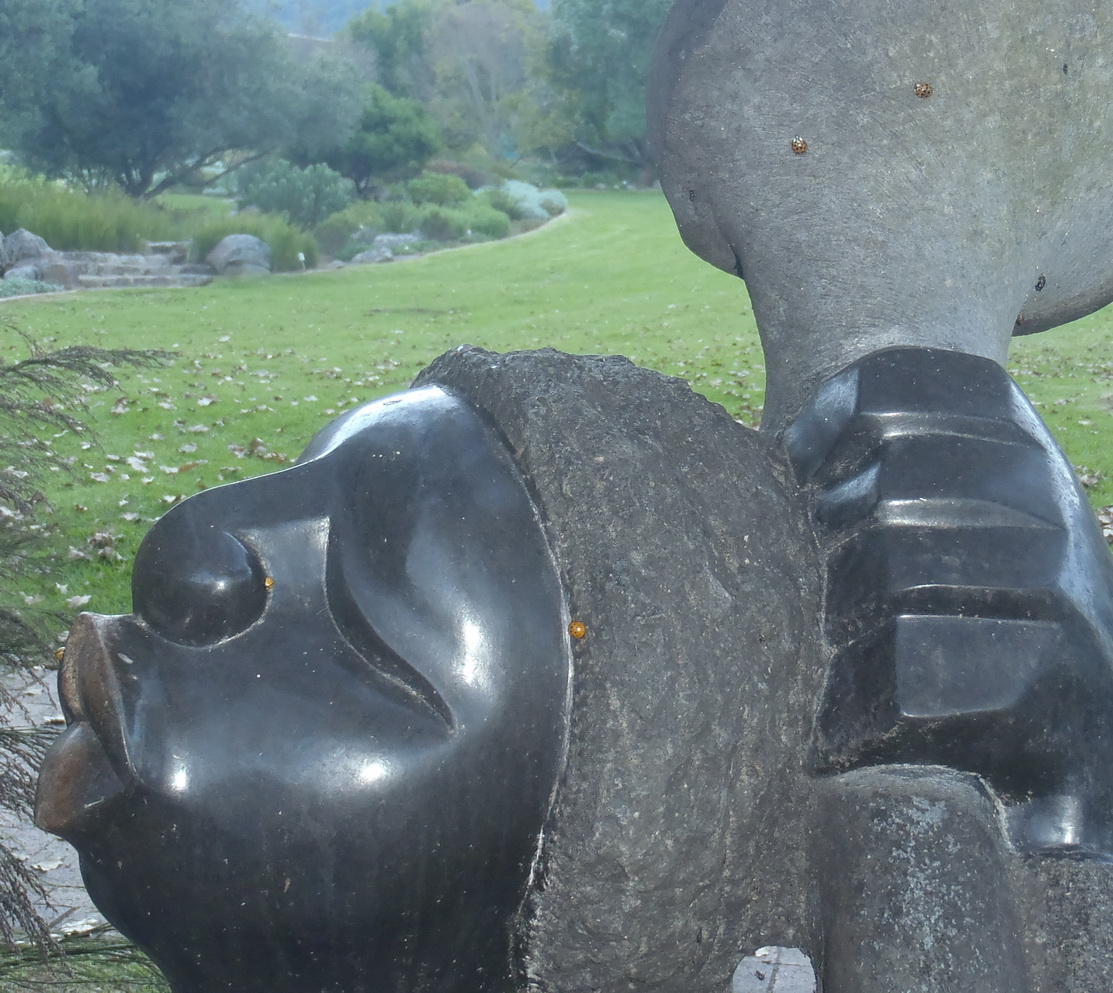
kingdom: Animalia
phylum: Arthropoda
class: Insecta
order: Coleoptera
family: Coccinellidae
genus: Harmonia
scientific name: Harmonia axyridis
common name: Harlequin ladybird
